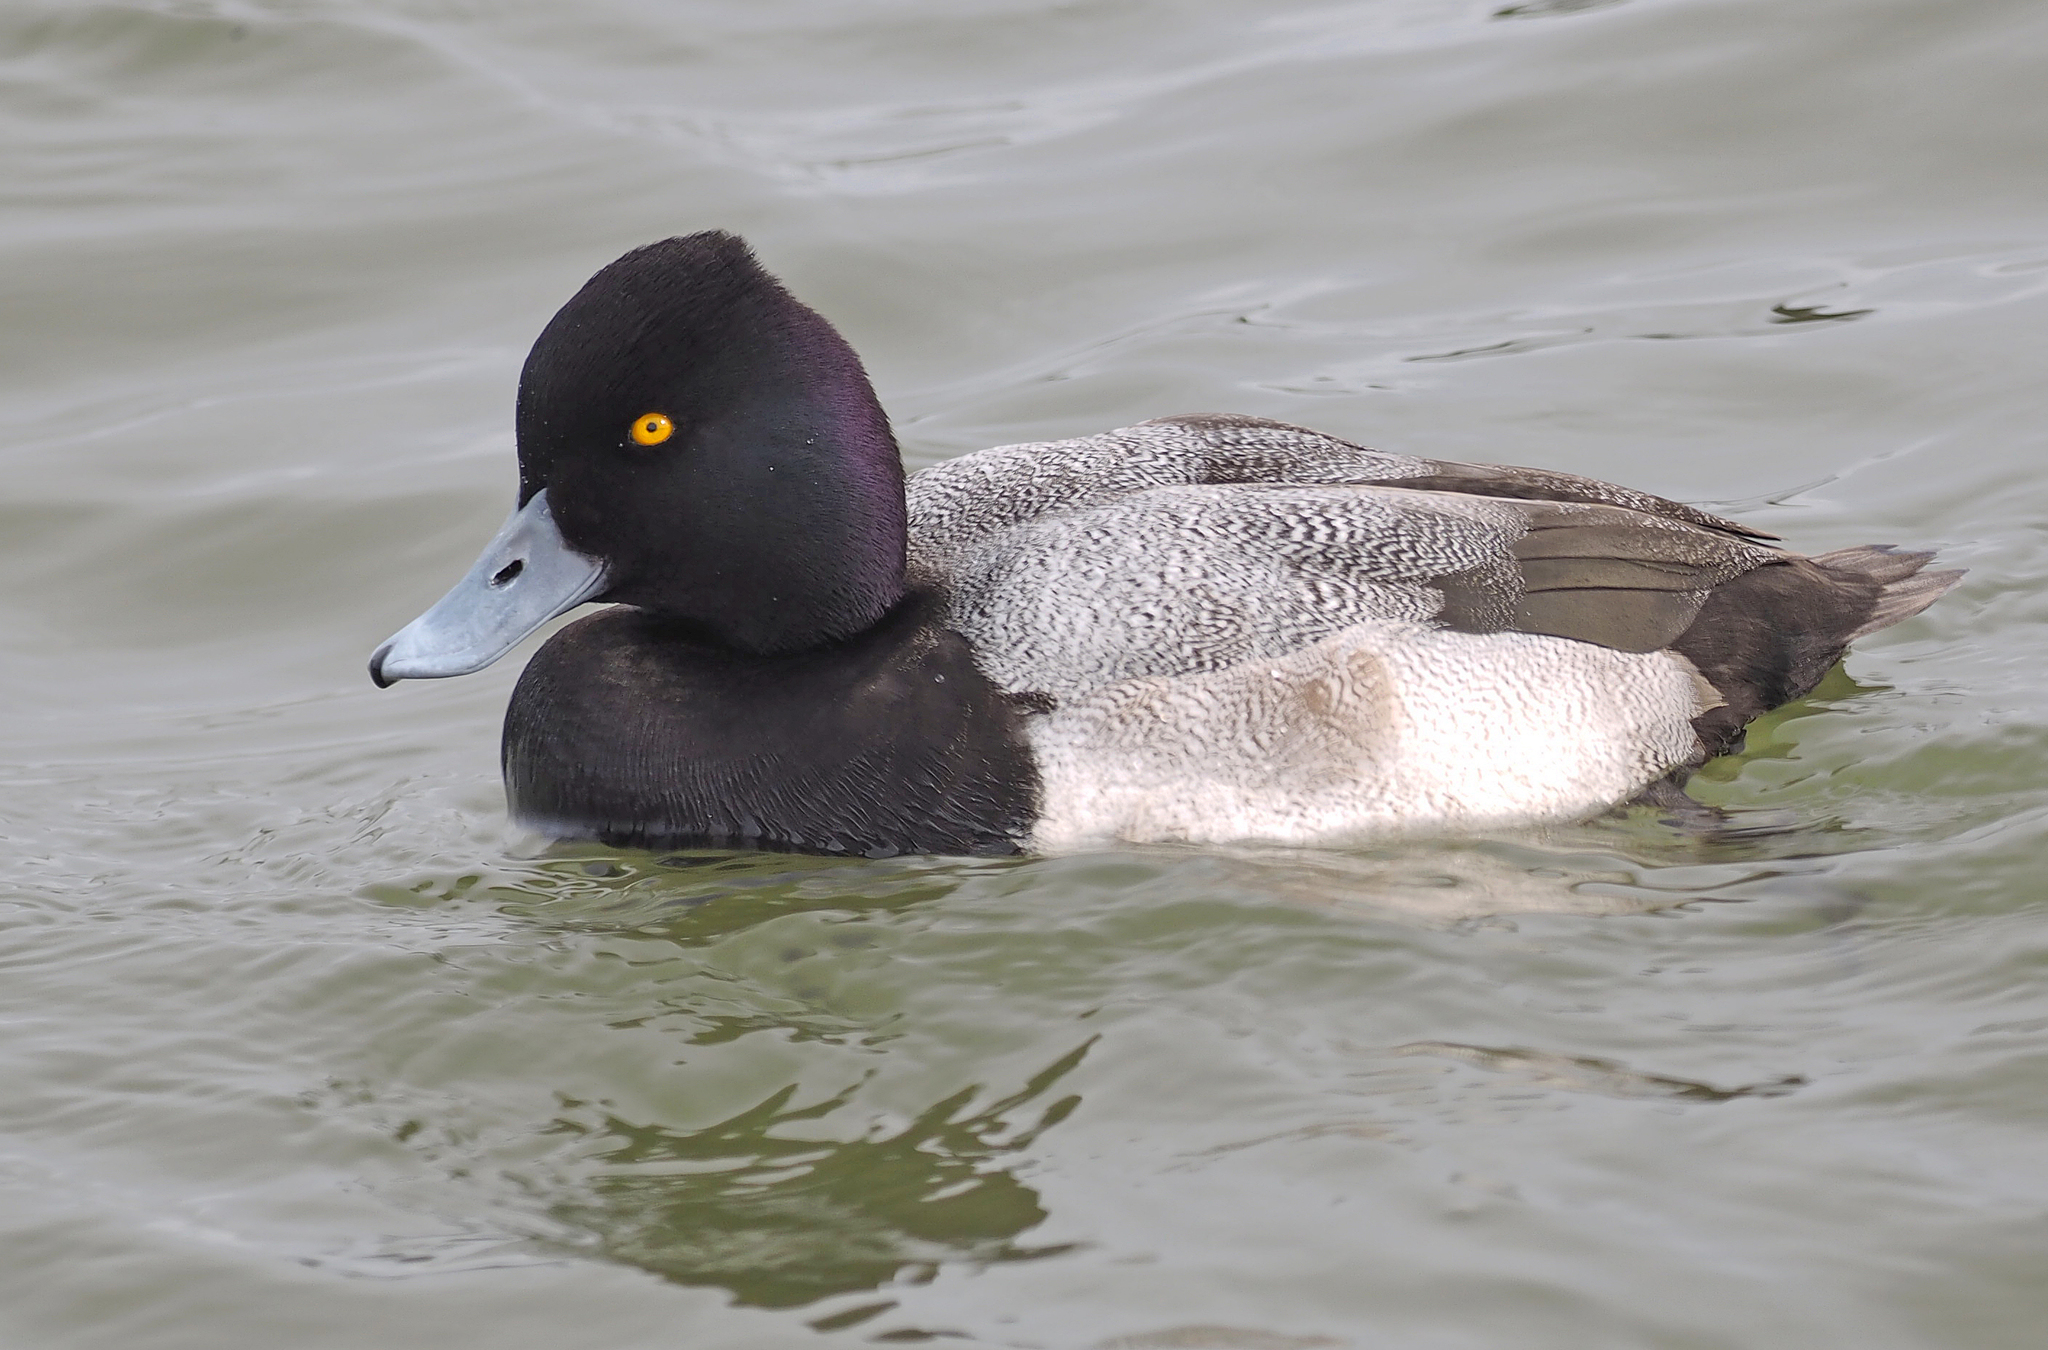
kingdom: Animalia
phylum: Chordata
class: Aves
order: Anseriformes
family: Anatidae
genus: Aythya
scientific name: Aythya affinis
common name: Lesser scaup
